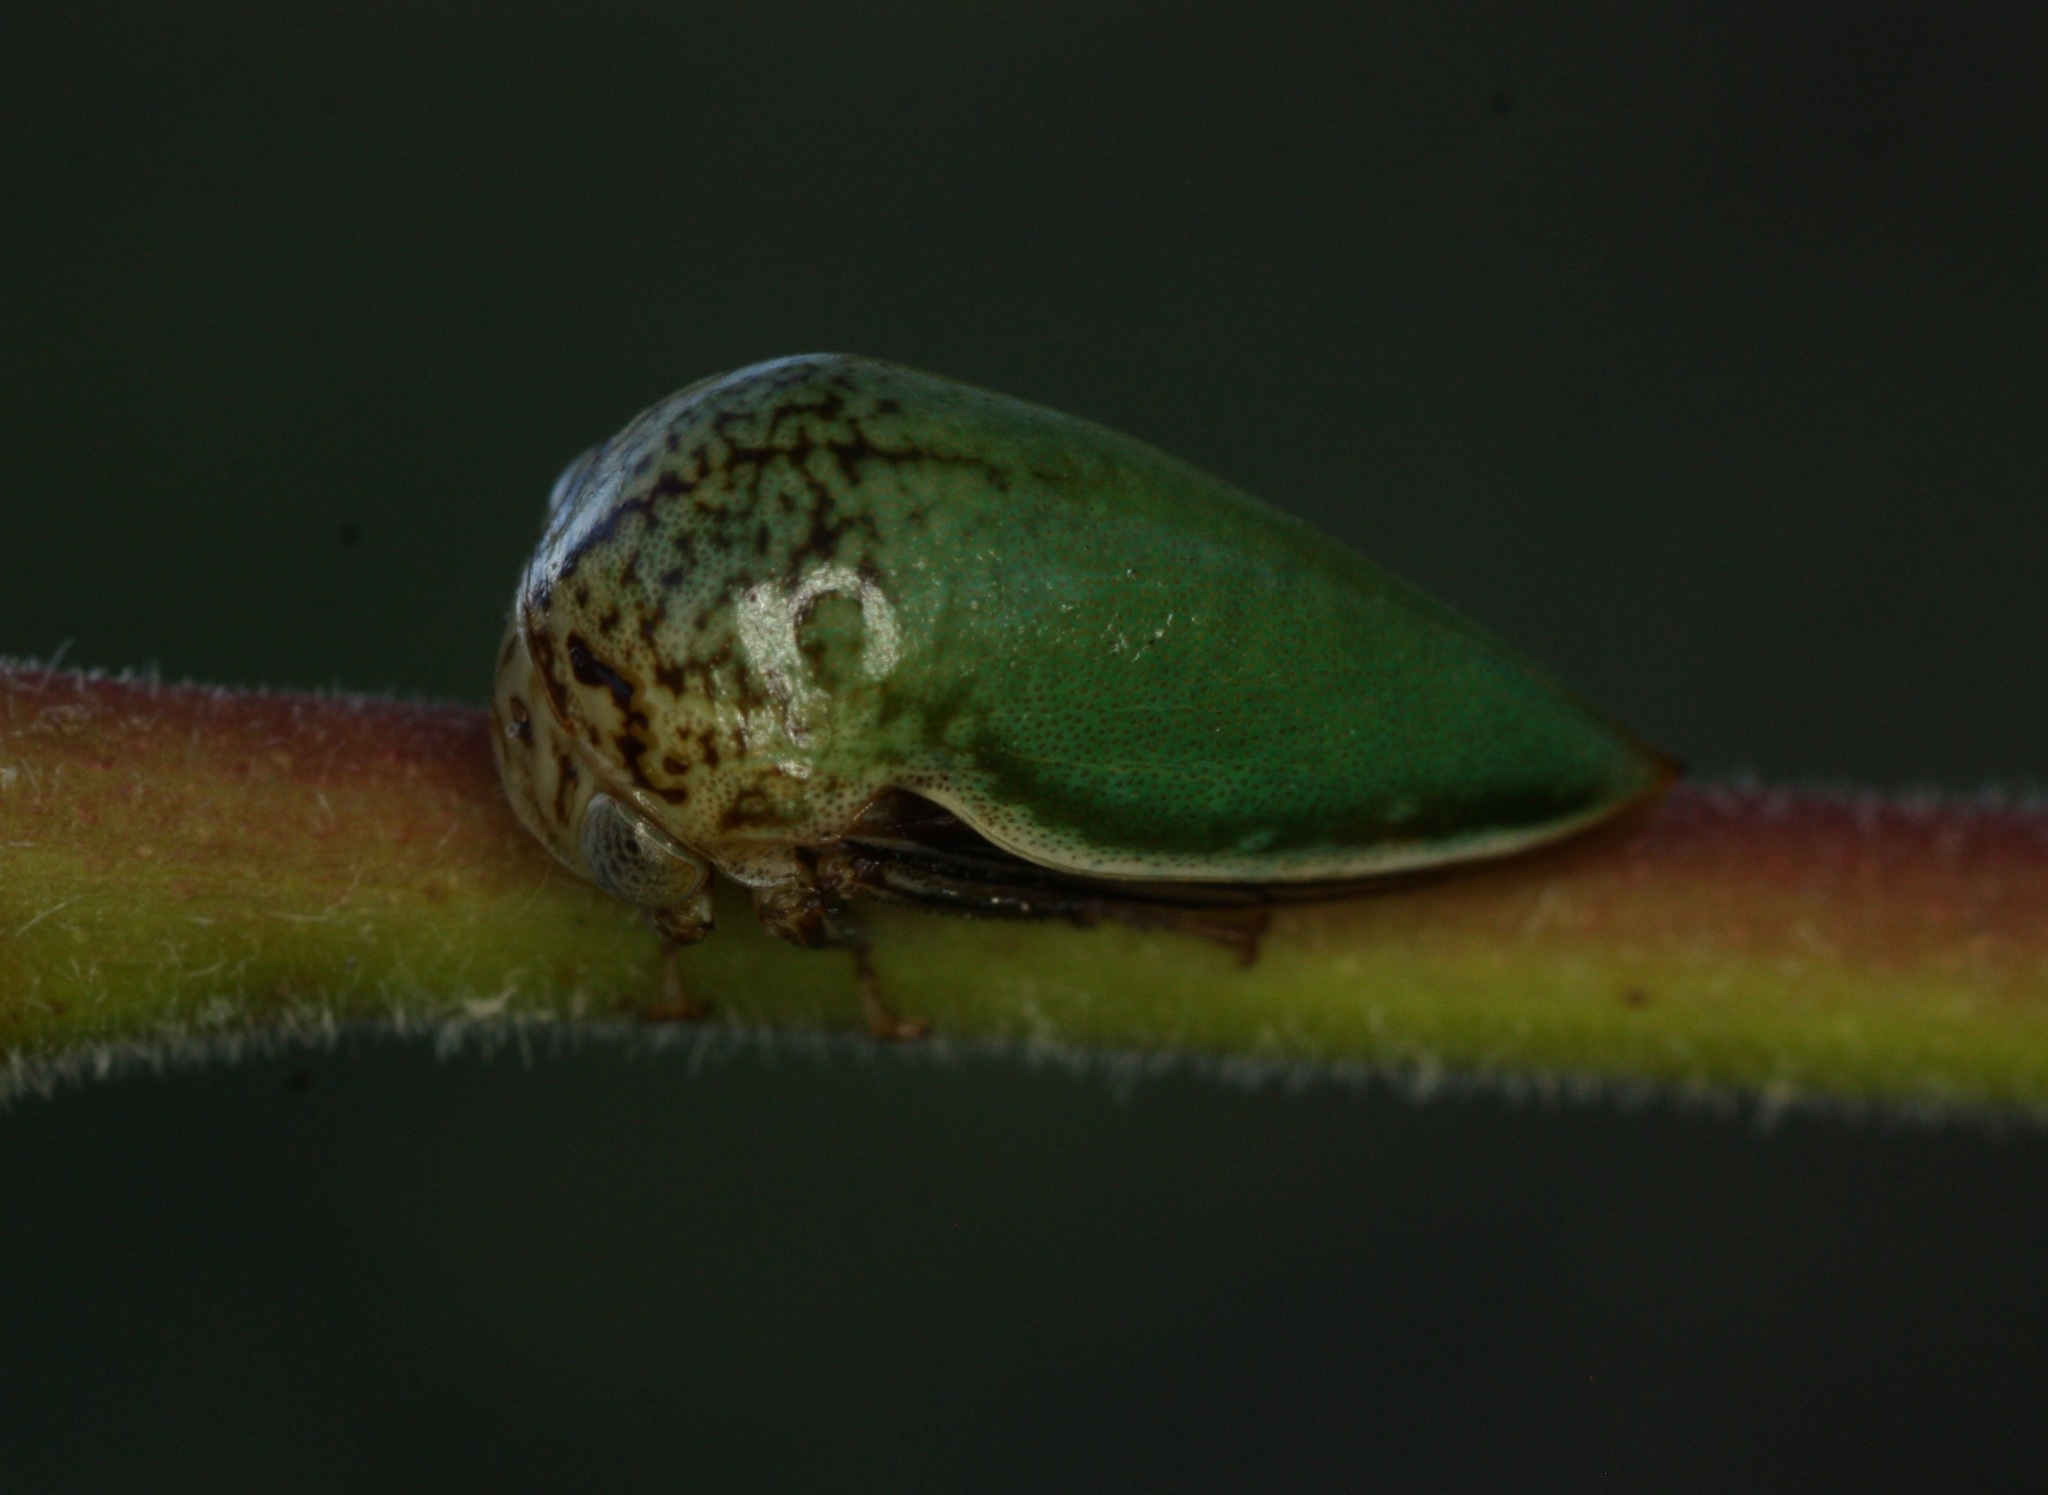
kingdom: Animalia
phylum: Arthropoda
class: Insecta
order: Hemiptera
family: Membracidae
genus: Stictopelta
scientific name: Stictopelta marmorata
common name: Treehopper
